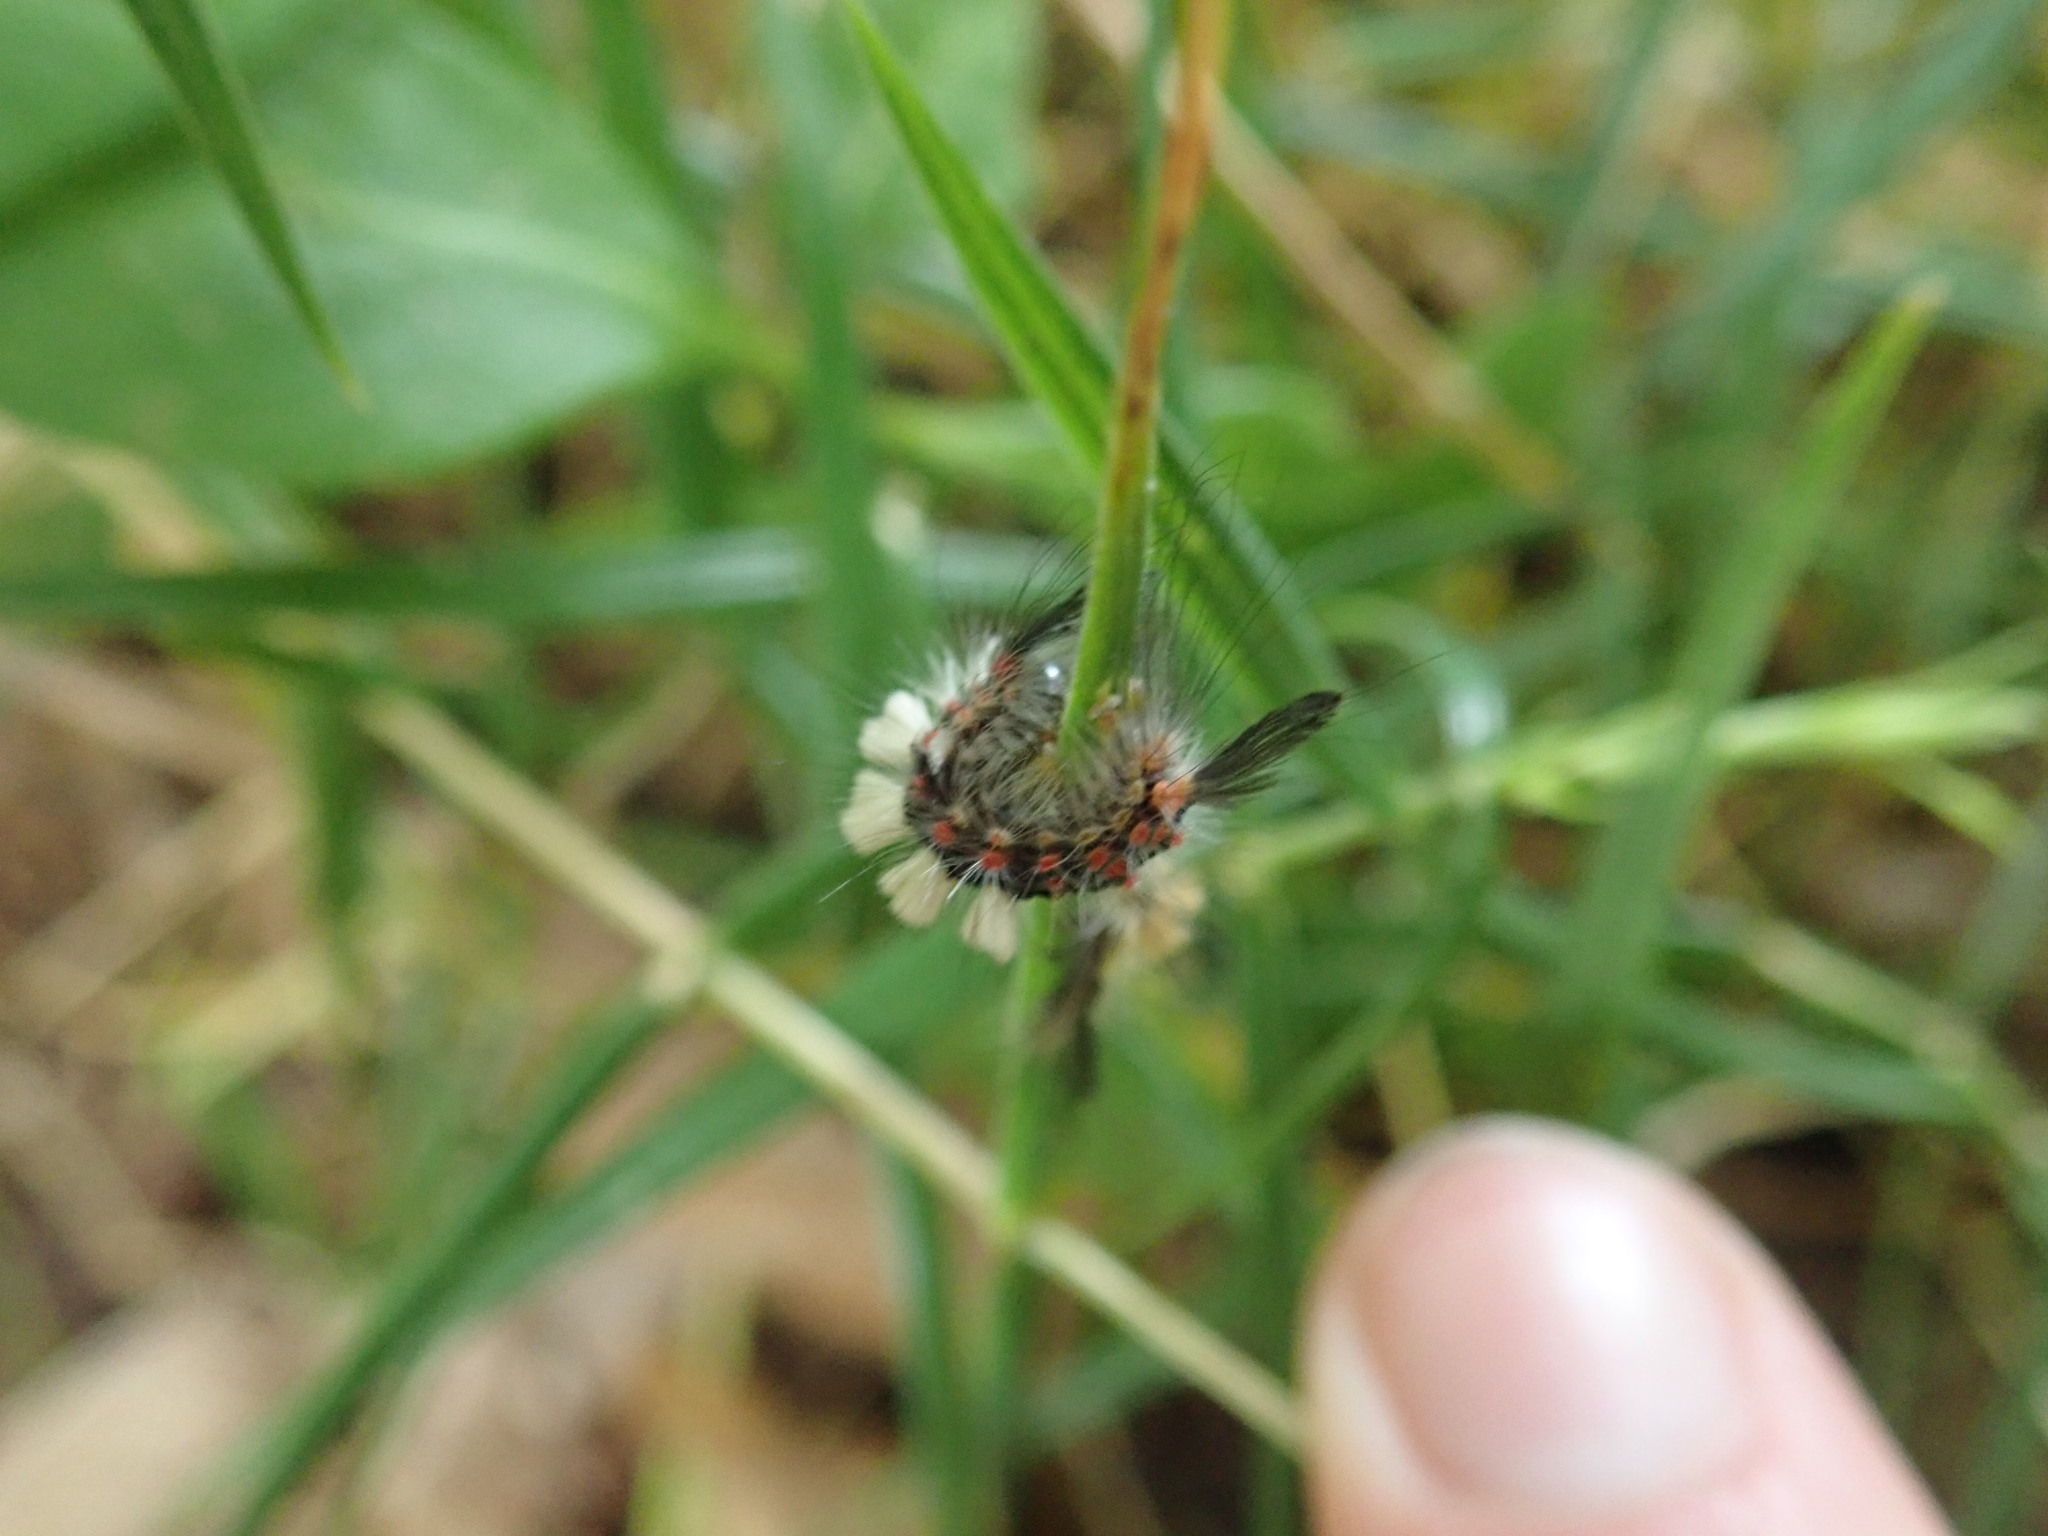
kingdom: Animalia
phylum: Arthropoda
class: Insecta
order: Lepidoptera
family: Erebidae
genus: Orgyia
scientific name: Orgyia antiqua
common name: Vapourer
